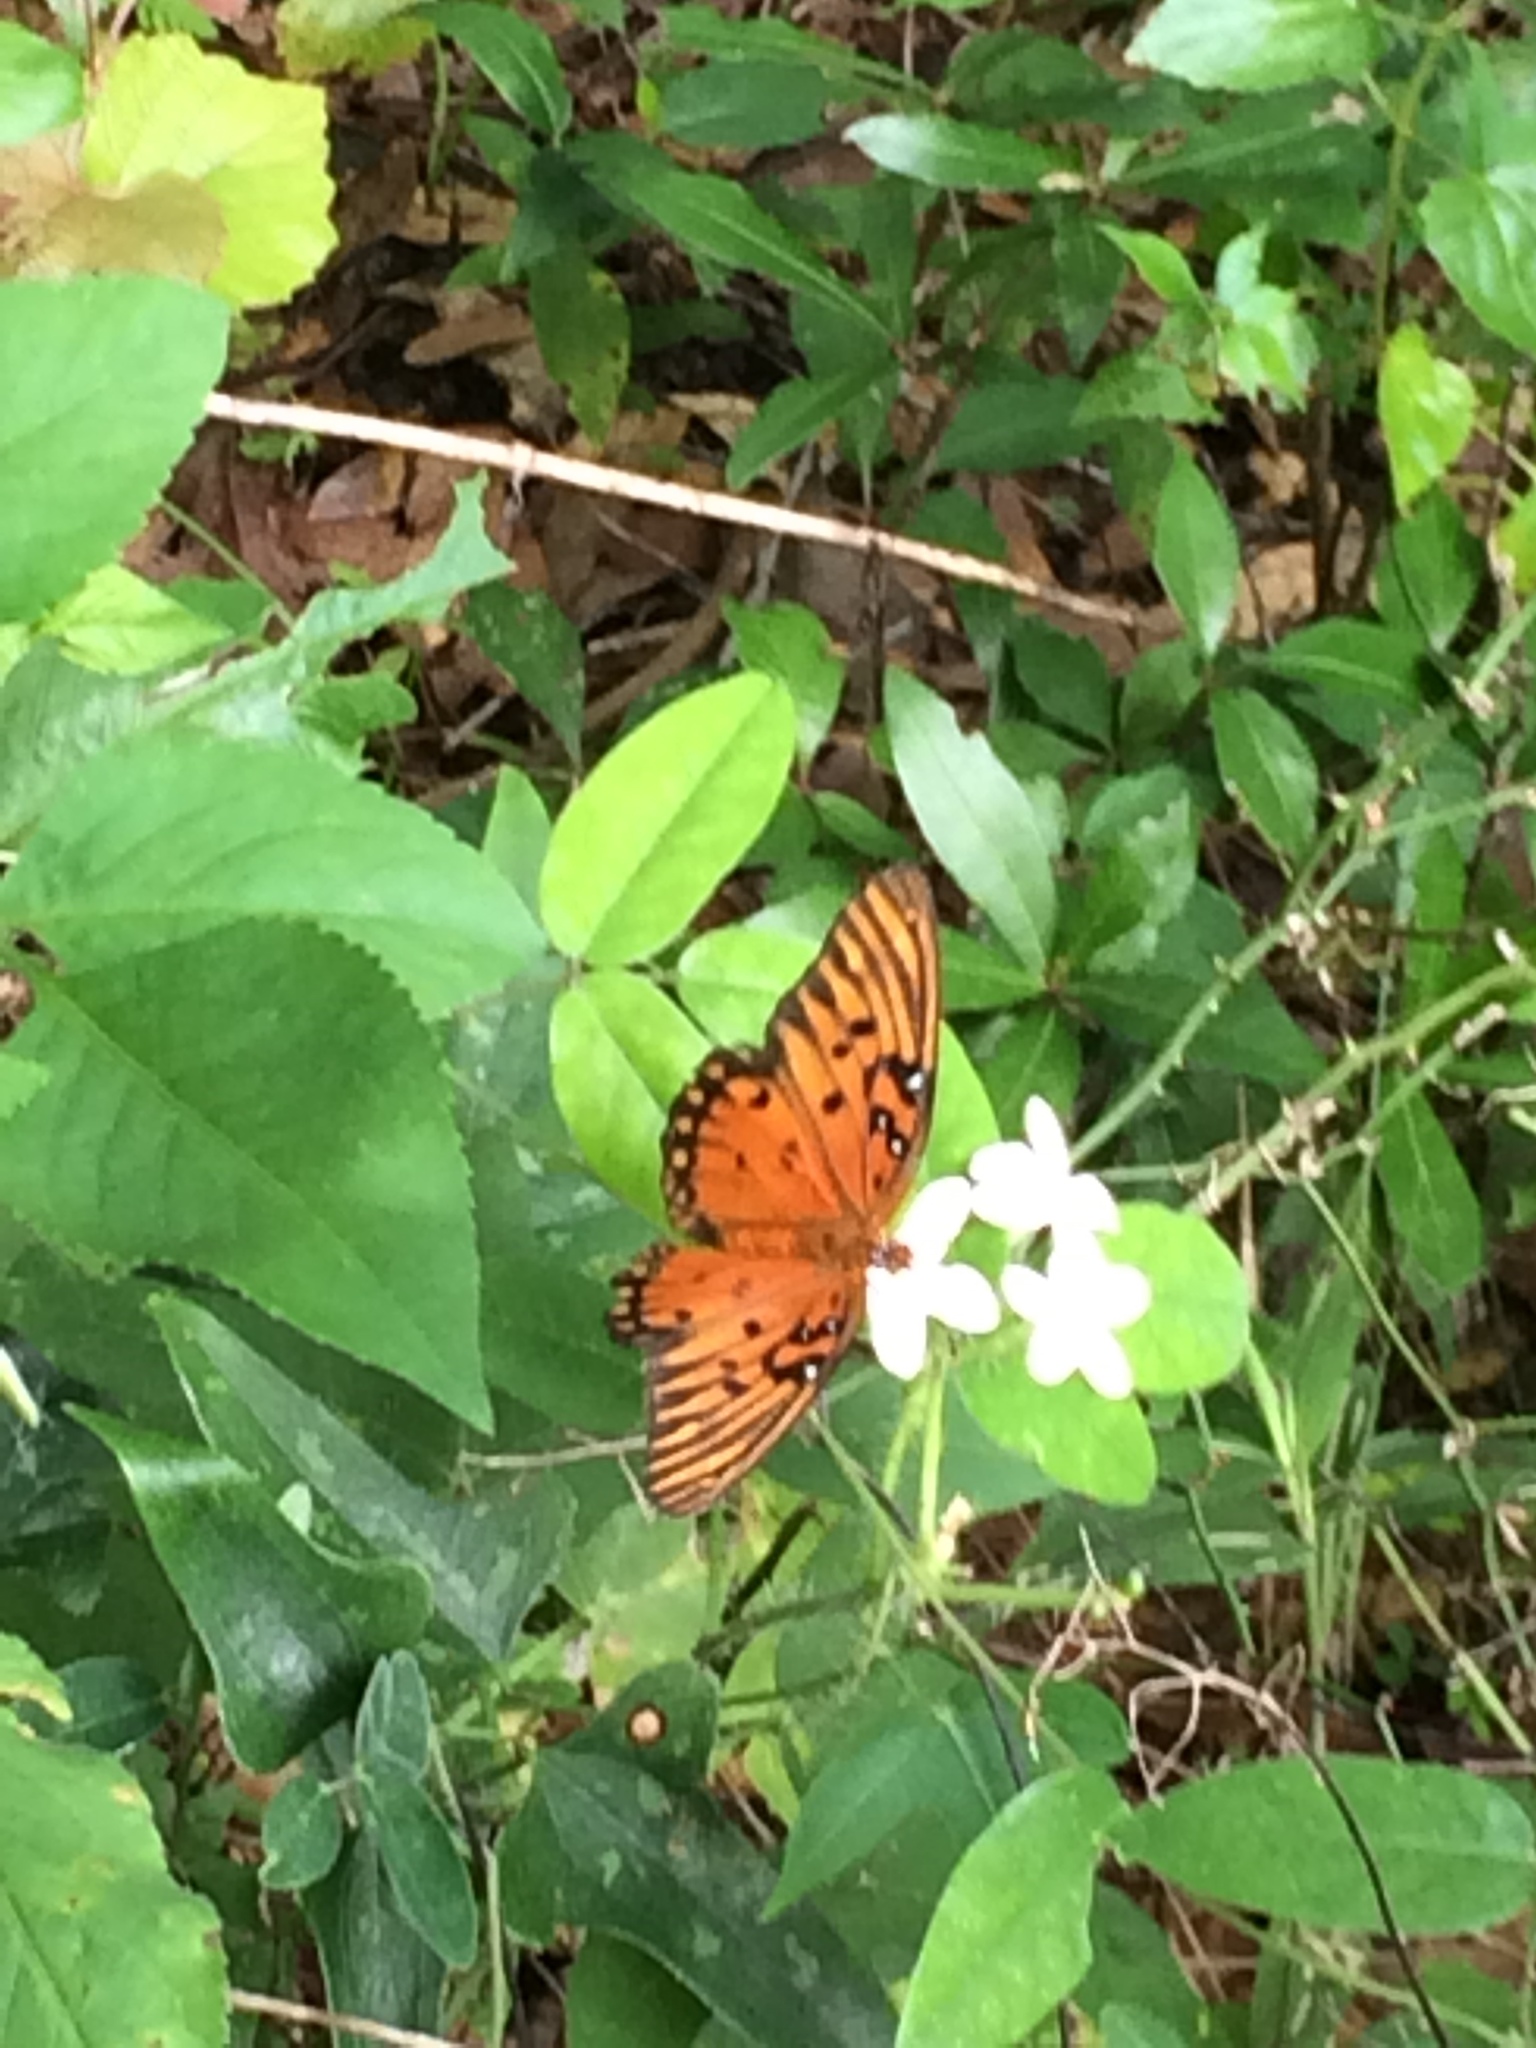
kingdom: Animalia
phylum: Arthropoda
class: Insecta
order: Lepidoptera
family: Nymphalidae
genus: Dione
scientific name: Dione vanillae
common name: Gulf fritillary
